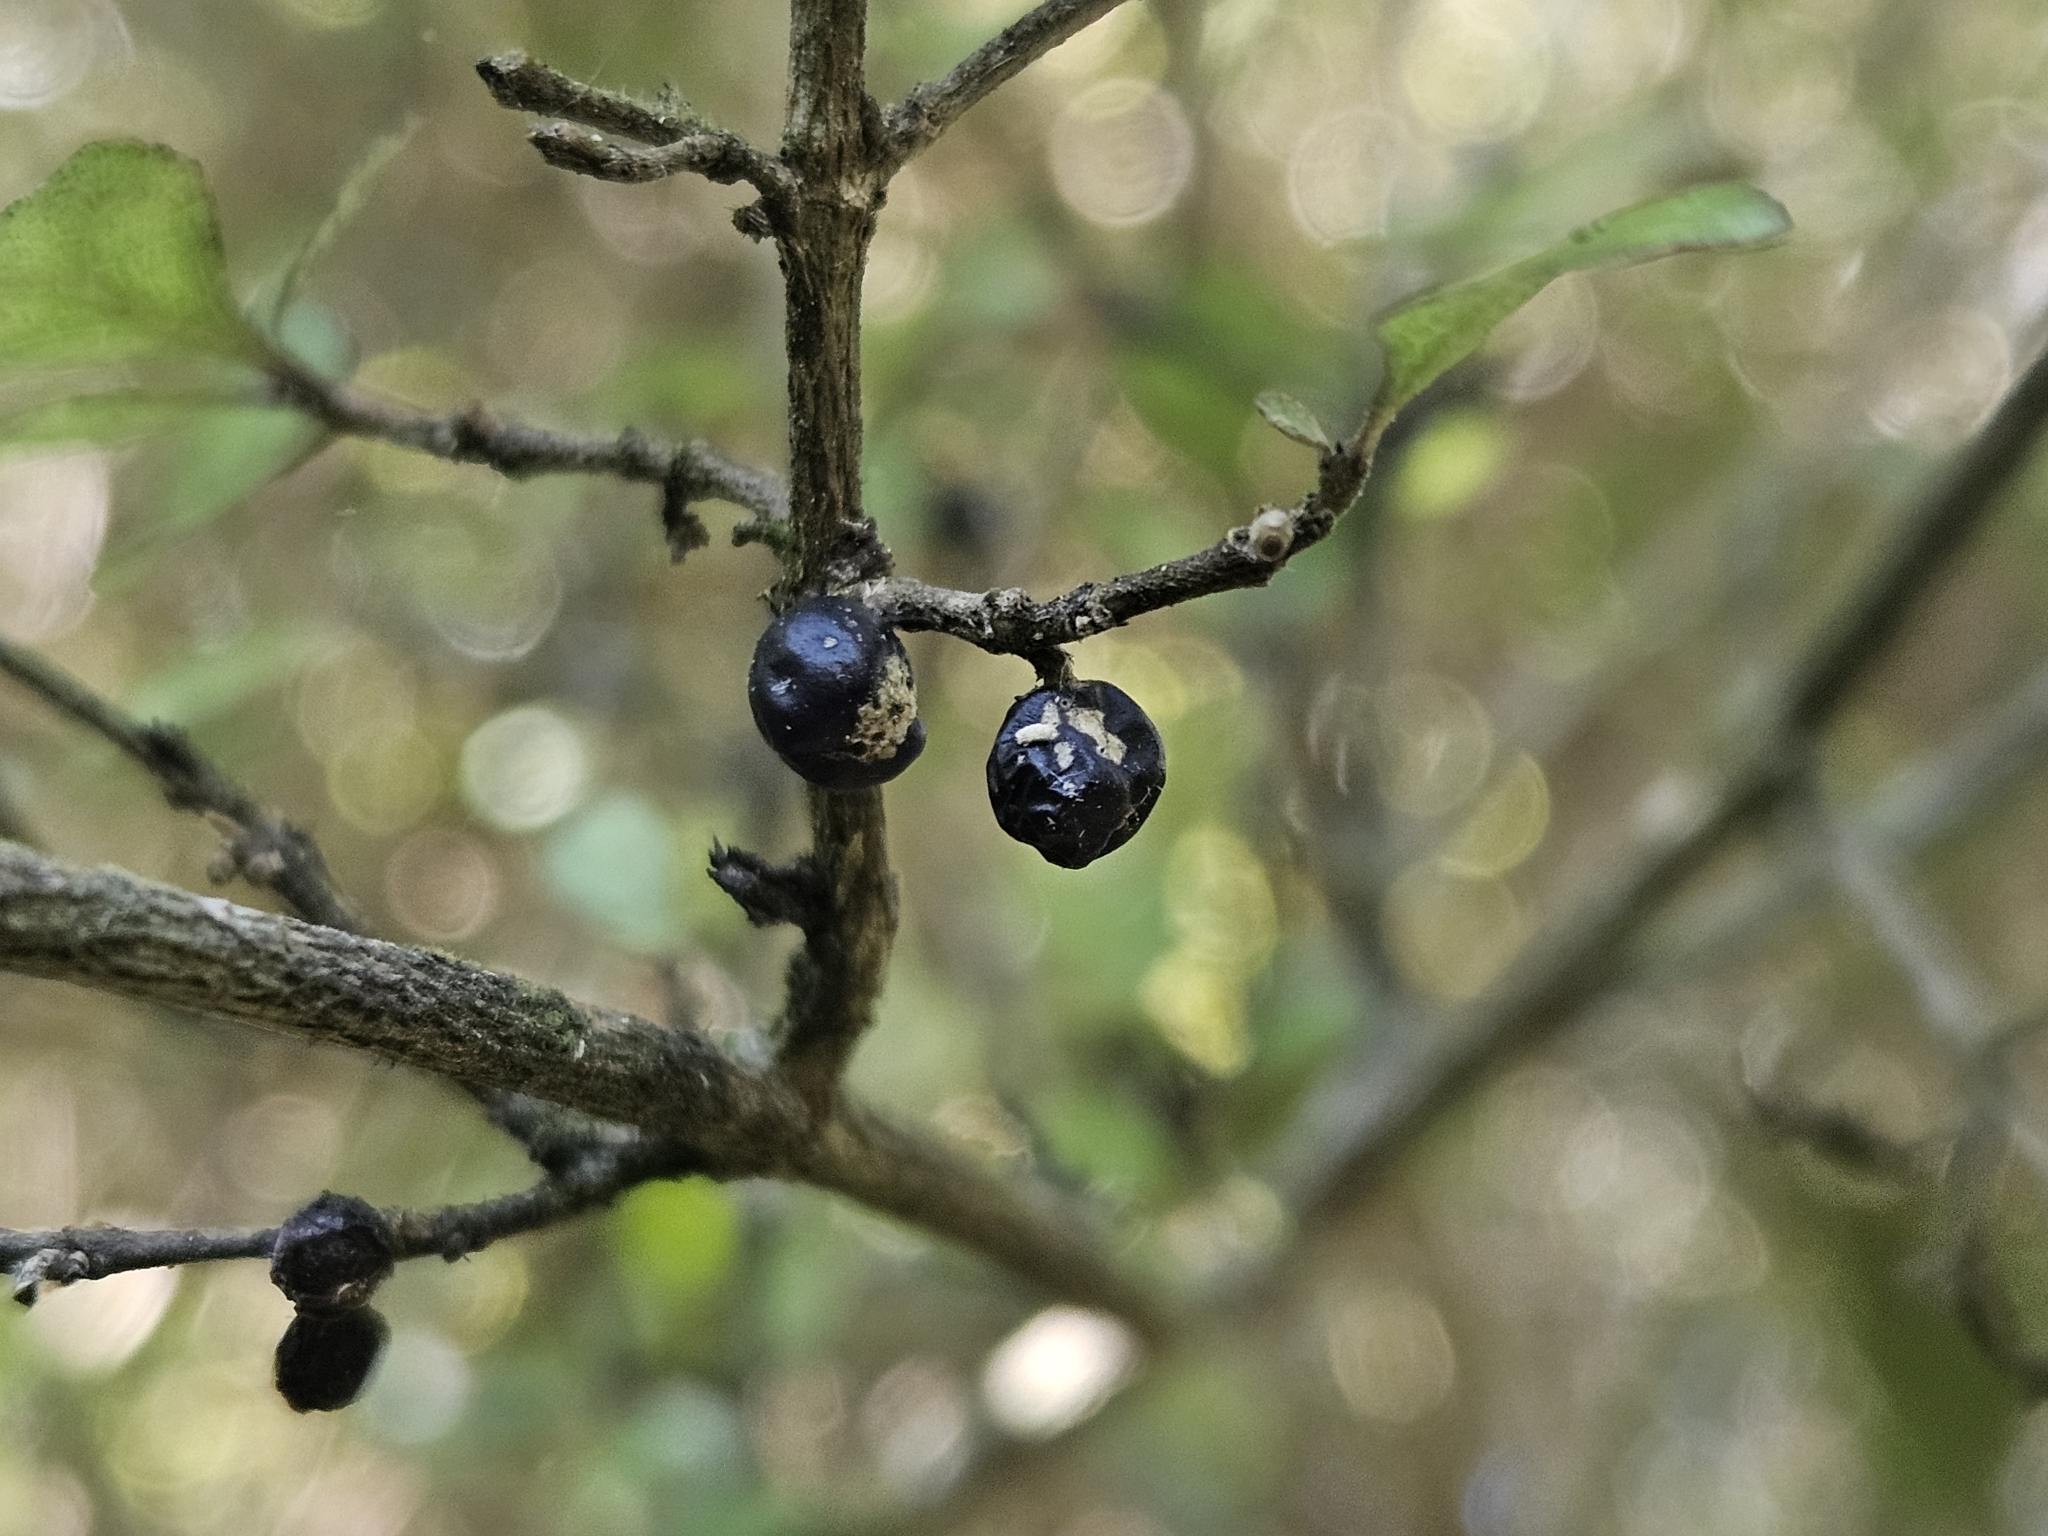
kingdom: Plantae
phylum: Tracheophyta
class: Magnoliopsida
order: Gentianales
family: Rubiaceae
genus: Coprosma
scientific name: Coprosma areolata
